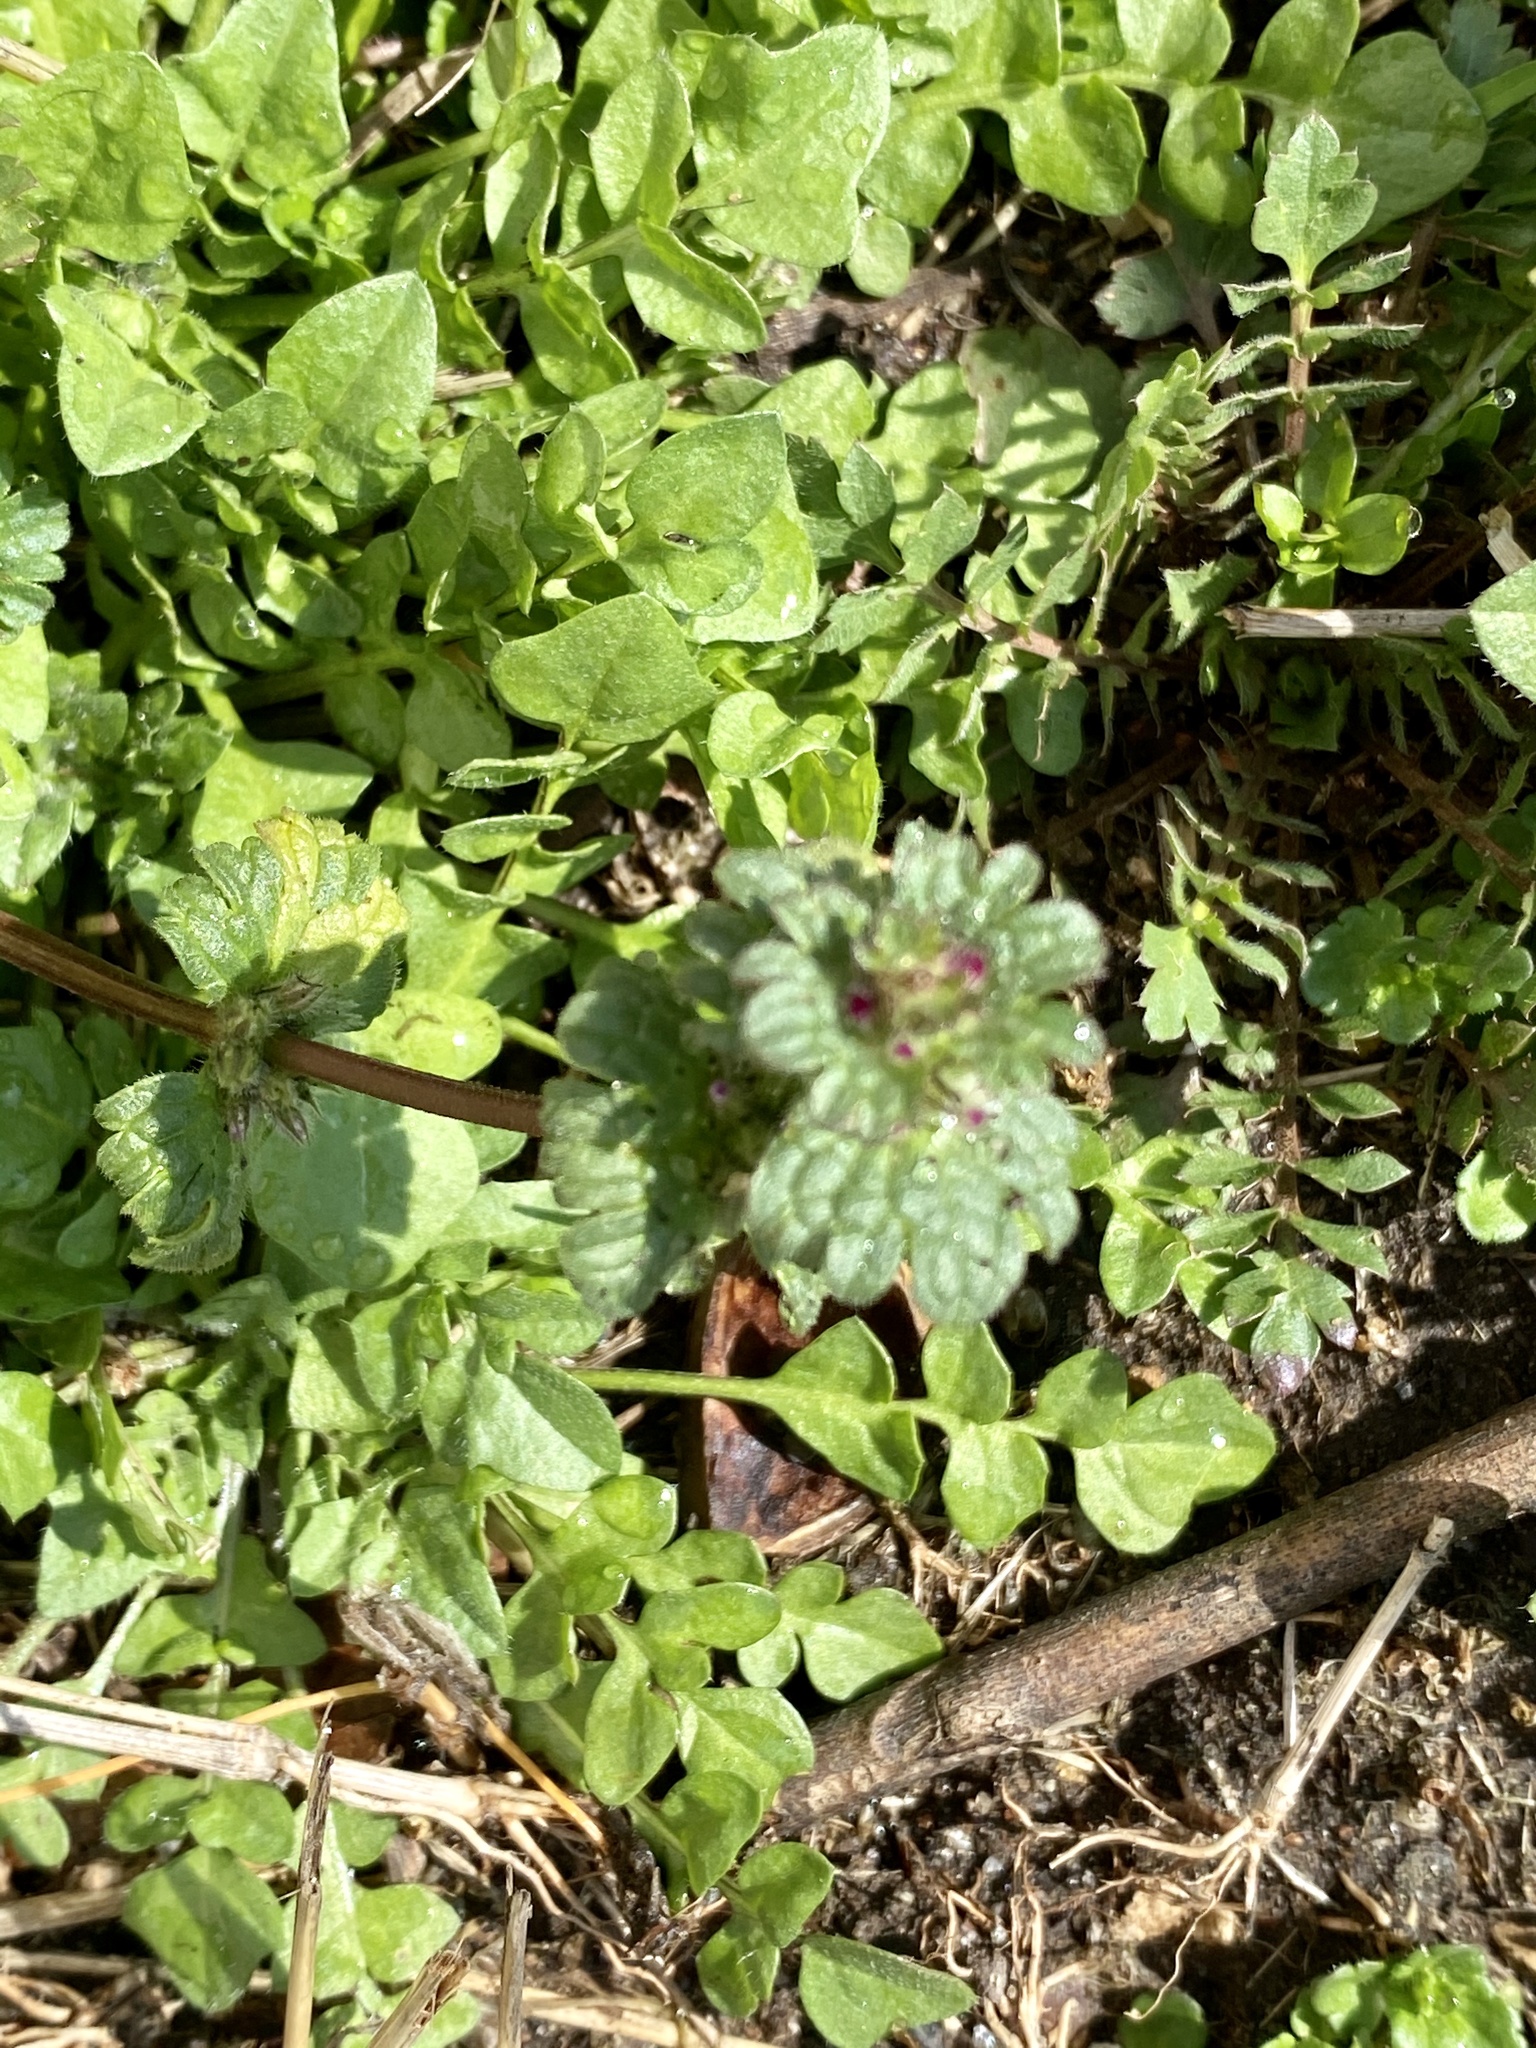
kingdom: Plantae
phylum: Tracheophyta
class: Magnoliopsida
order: Lamiales
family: Lamiaceae
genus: Lamium
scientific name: Lamium amplexicaule
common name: Henbit dead-nettle
